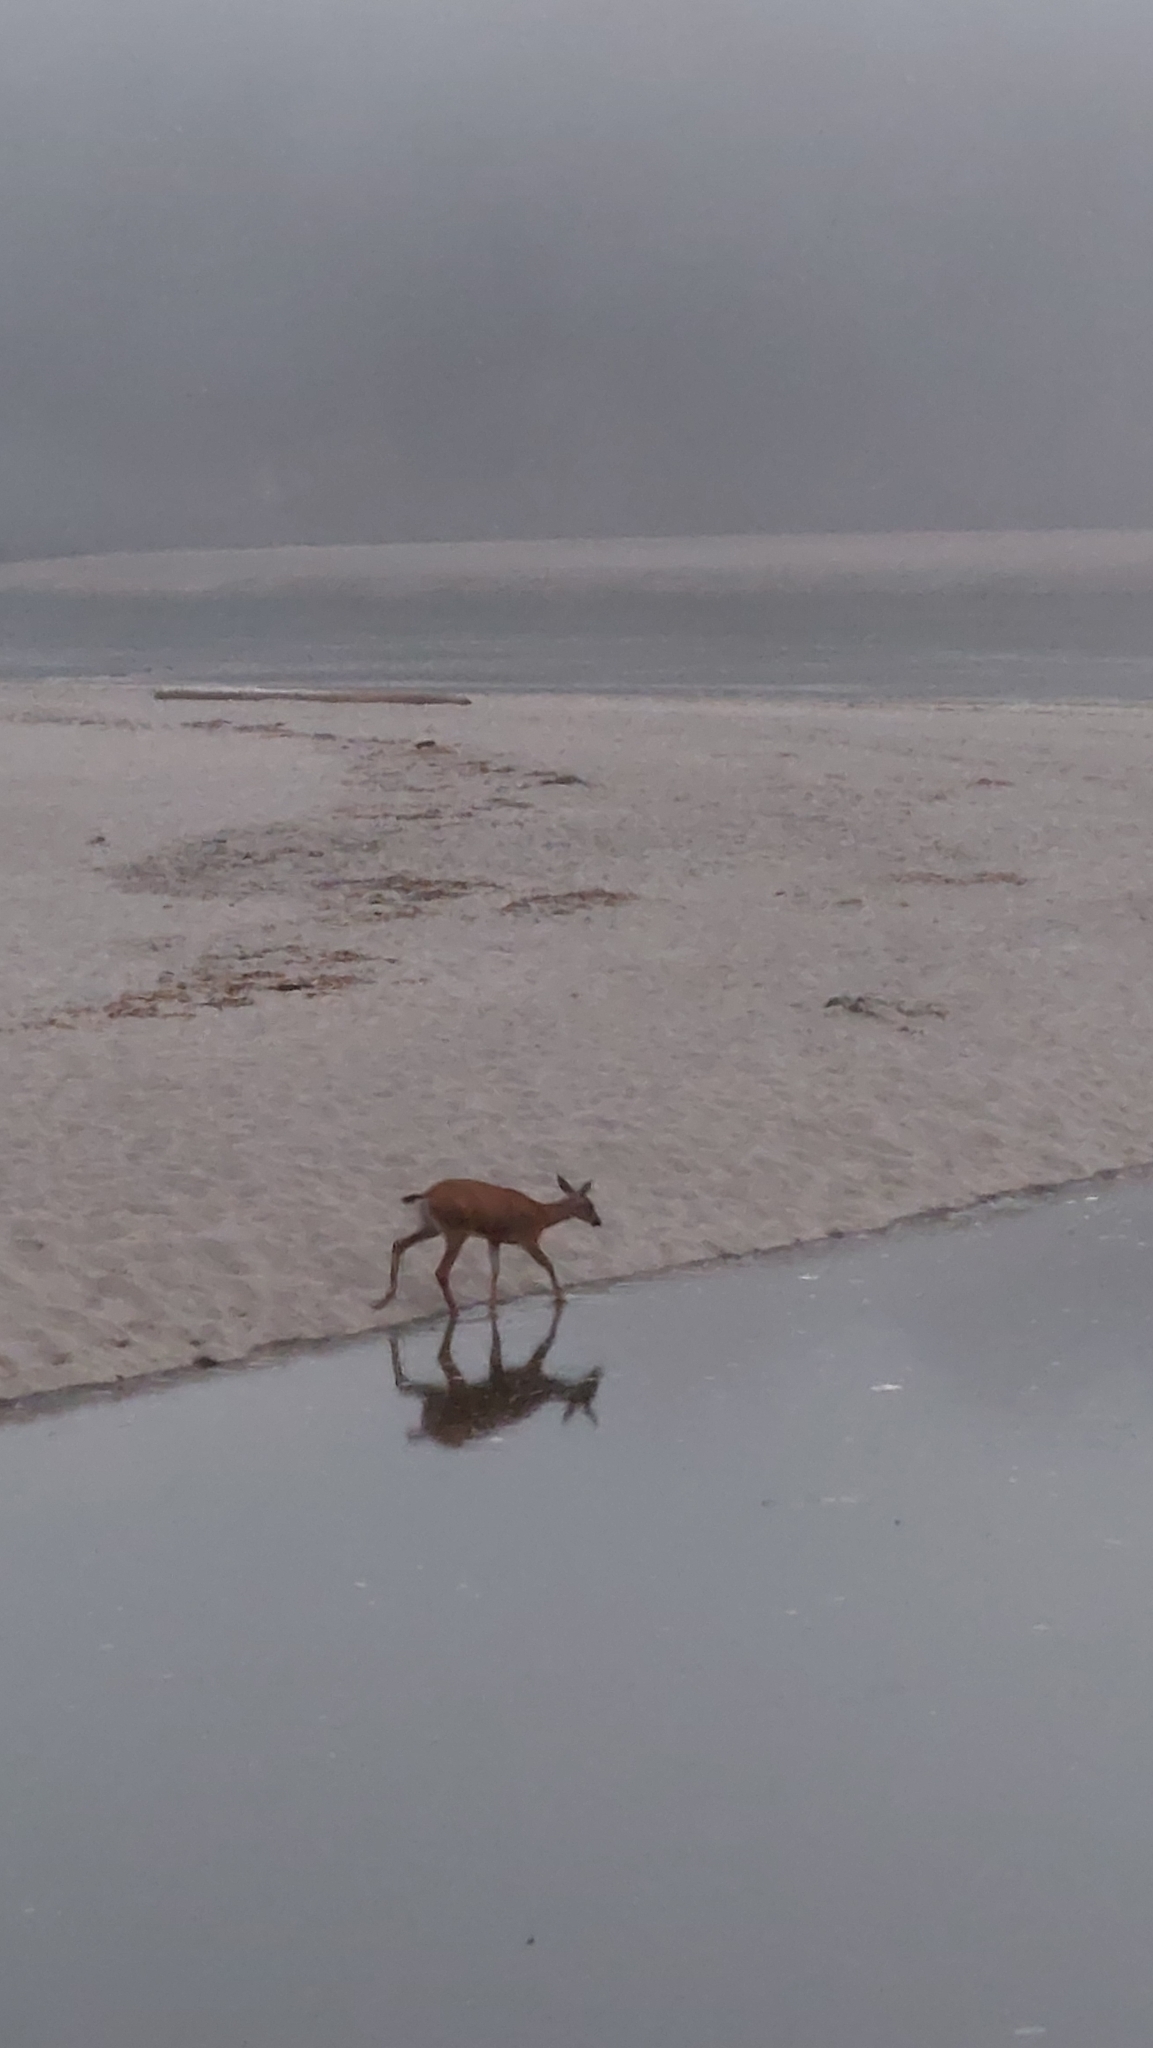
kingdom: Animalia
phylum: Chordata
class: Mammalia
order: Artiodactyla
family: Cervidae
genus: Odocoileus
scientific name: Odocoileus hemionus
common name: Mule deer
